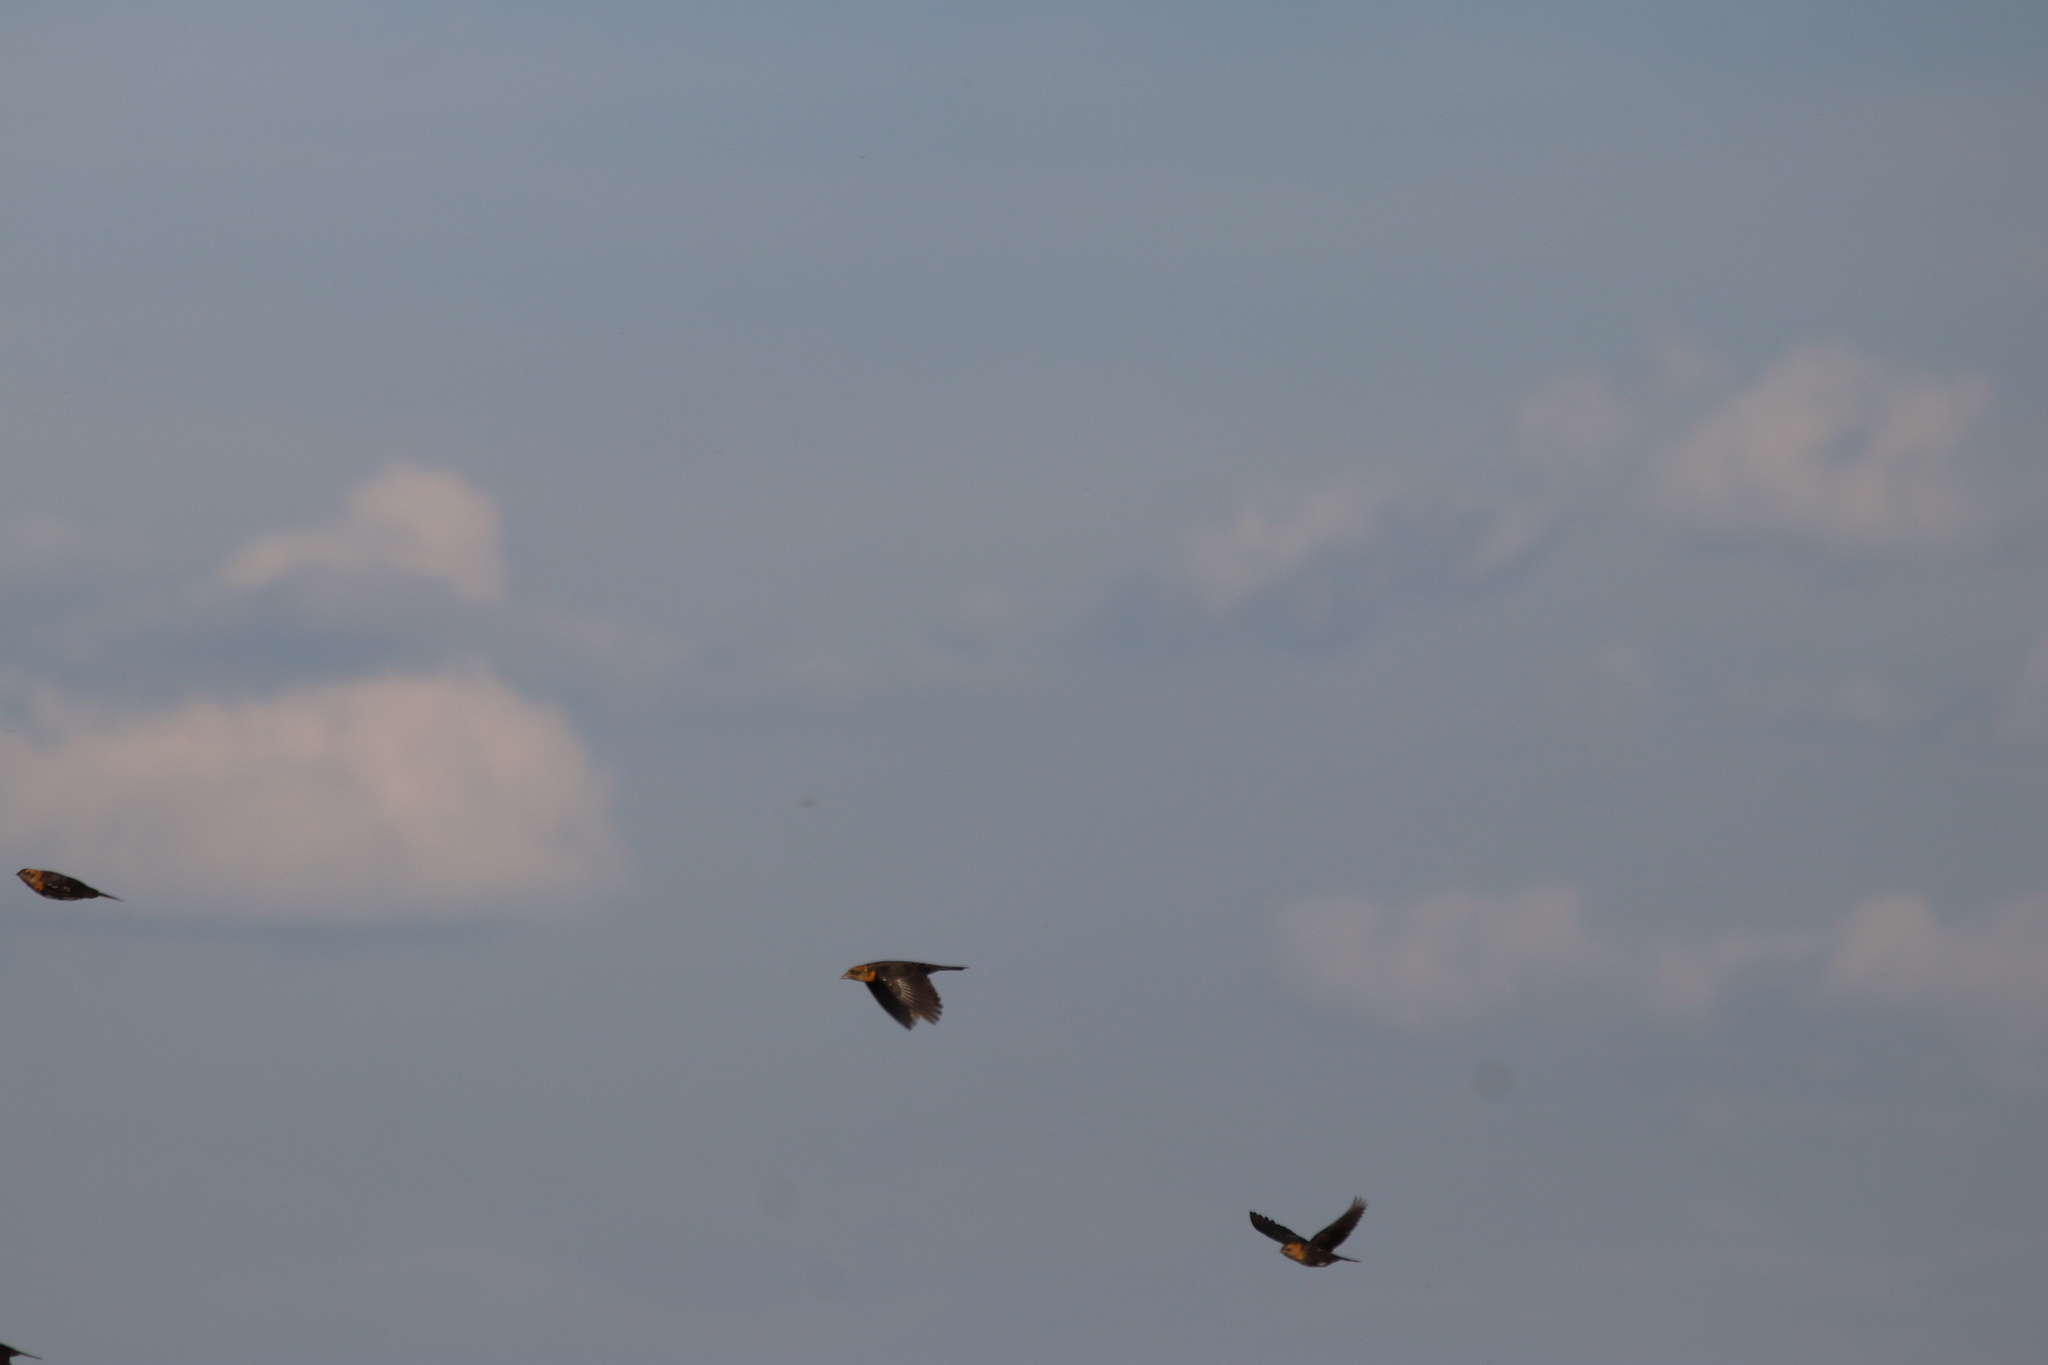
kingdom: Animalia
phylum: Chordata
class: Aves
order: Passeriformes
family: Icteridae
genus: Xanthocephalus
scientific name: Xanthocephalus xanthocephalus
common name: Yellow-headed blackbird
